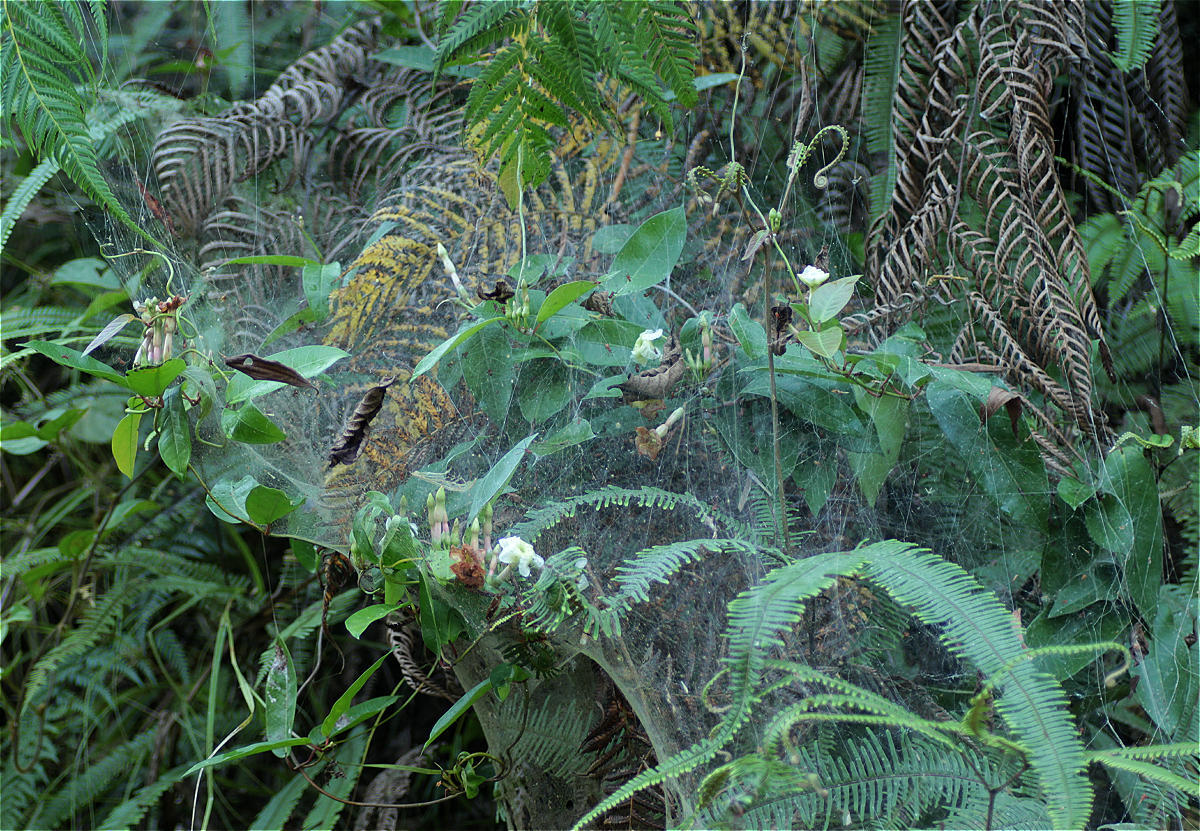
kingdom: Animalia
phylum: Arthropoda
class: Arachnida
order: Araneae
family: Theridiidae
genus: Anelosimus
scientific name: Anelosimus eximius
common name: Cobweb spiders
